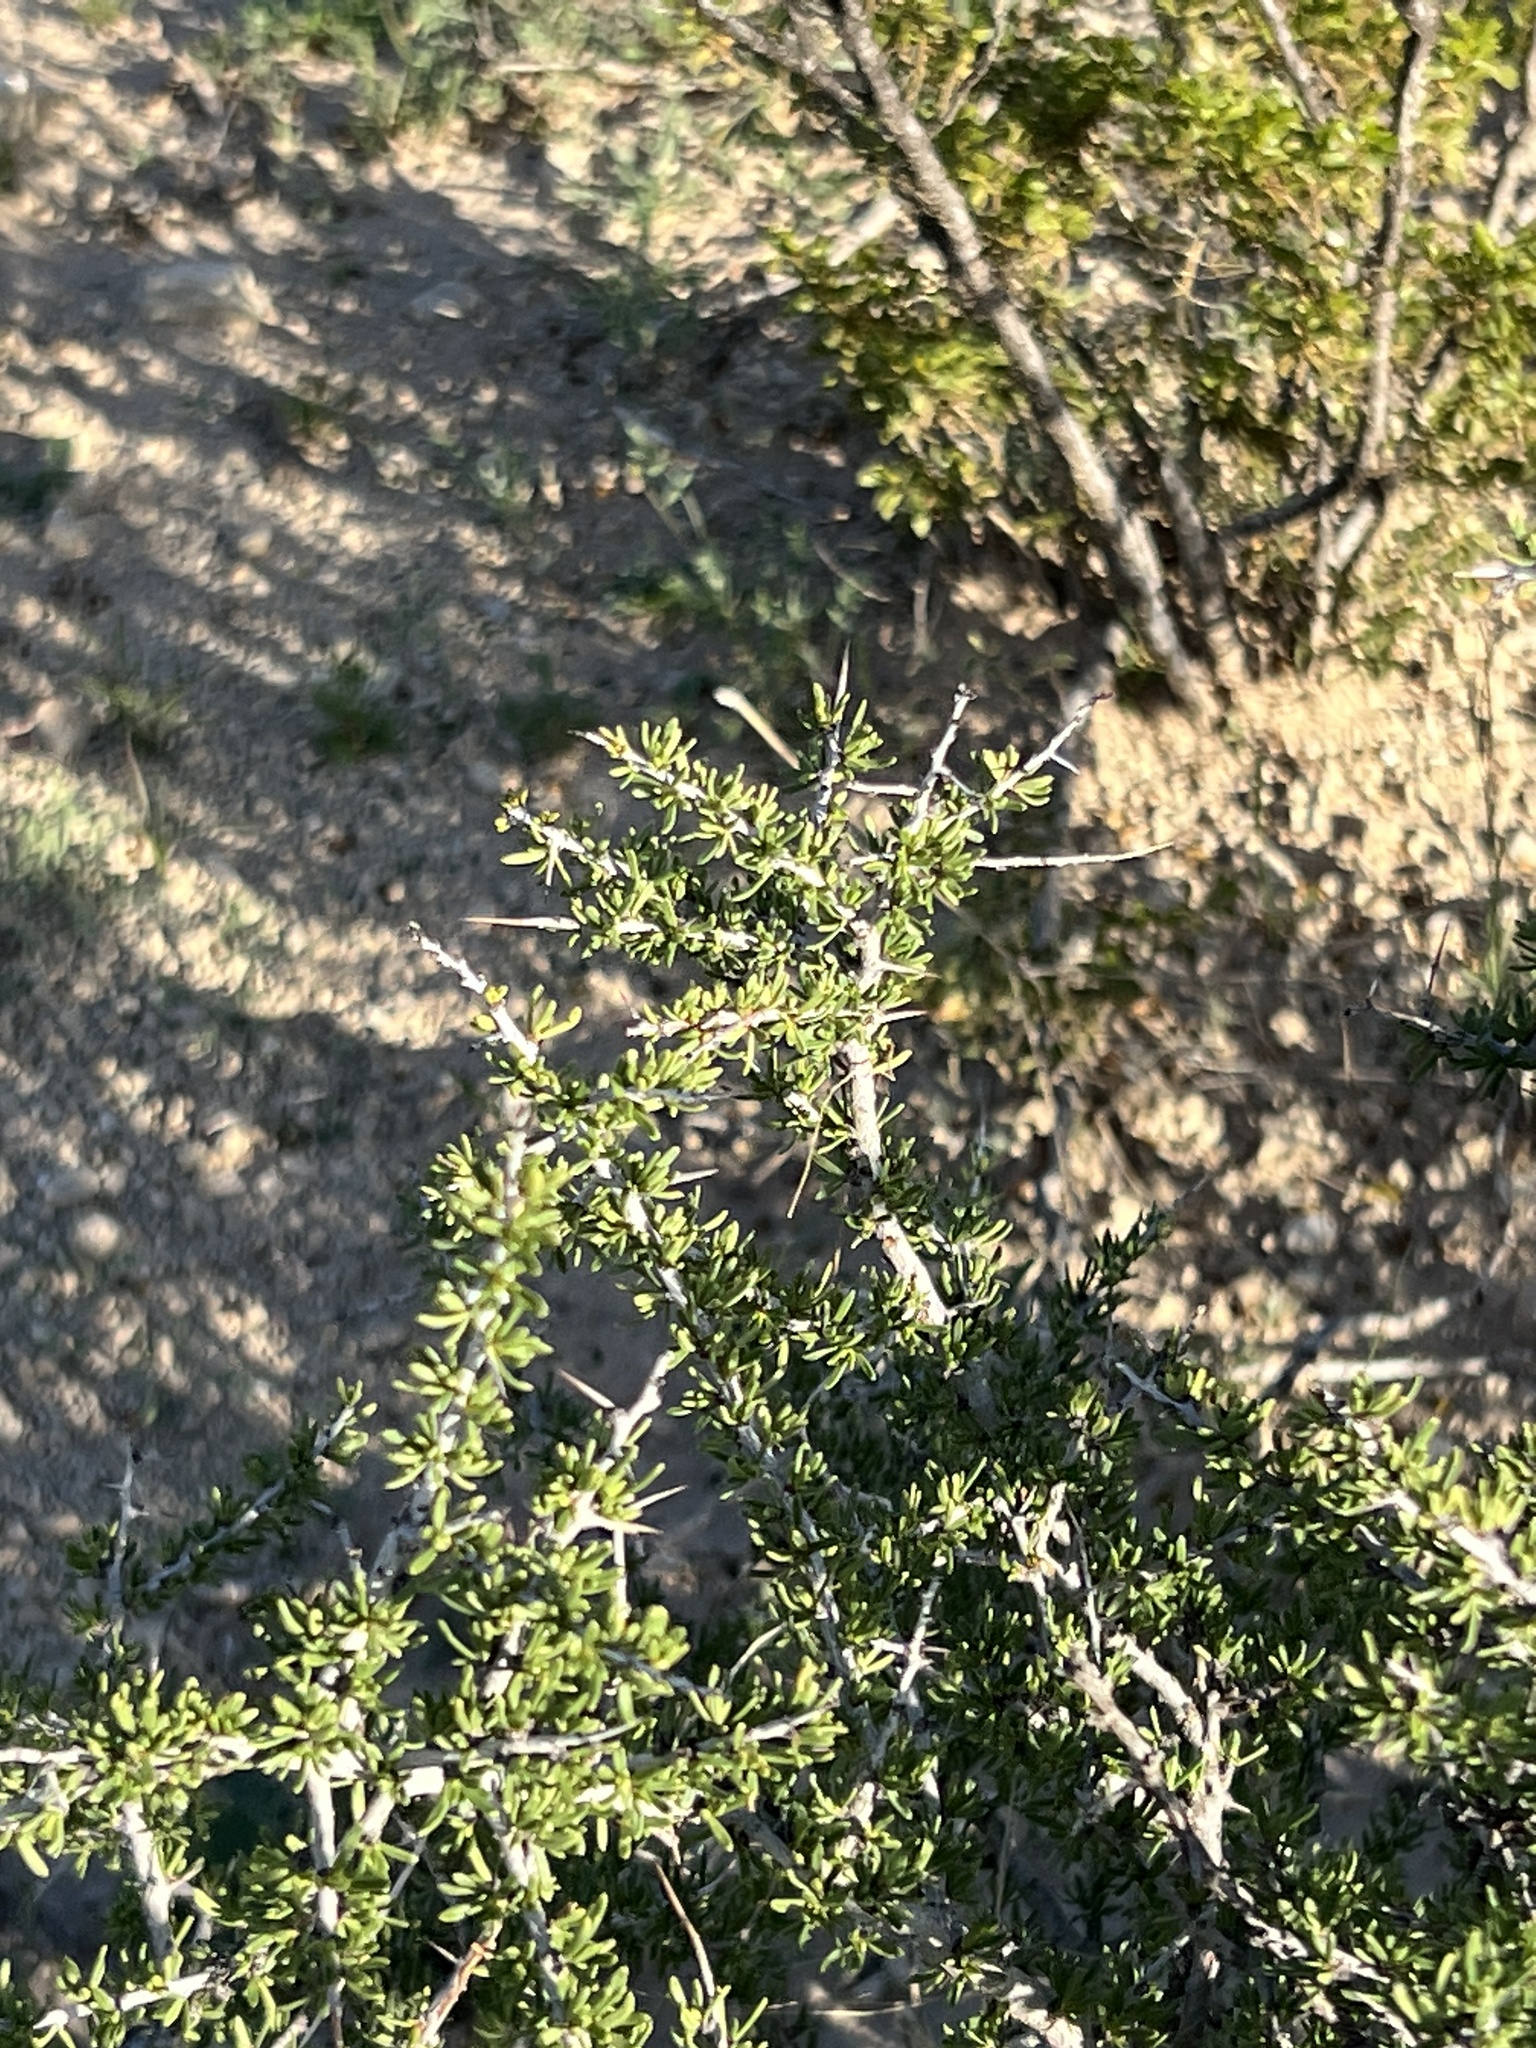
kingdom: Plantae
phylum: Tracheophyta
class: Magnoliopsida
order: Rosales
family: Rhamnaceae
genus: Condalia
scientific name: Condalia ericoides
